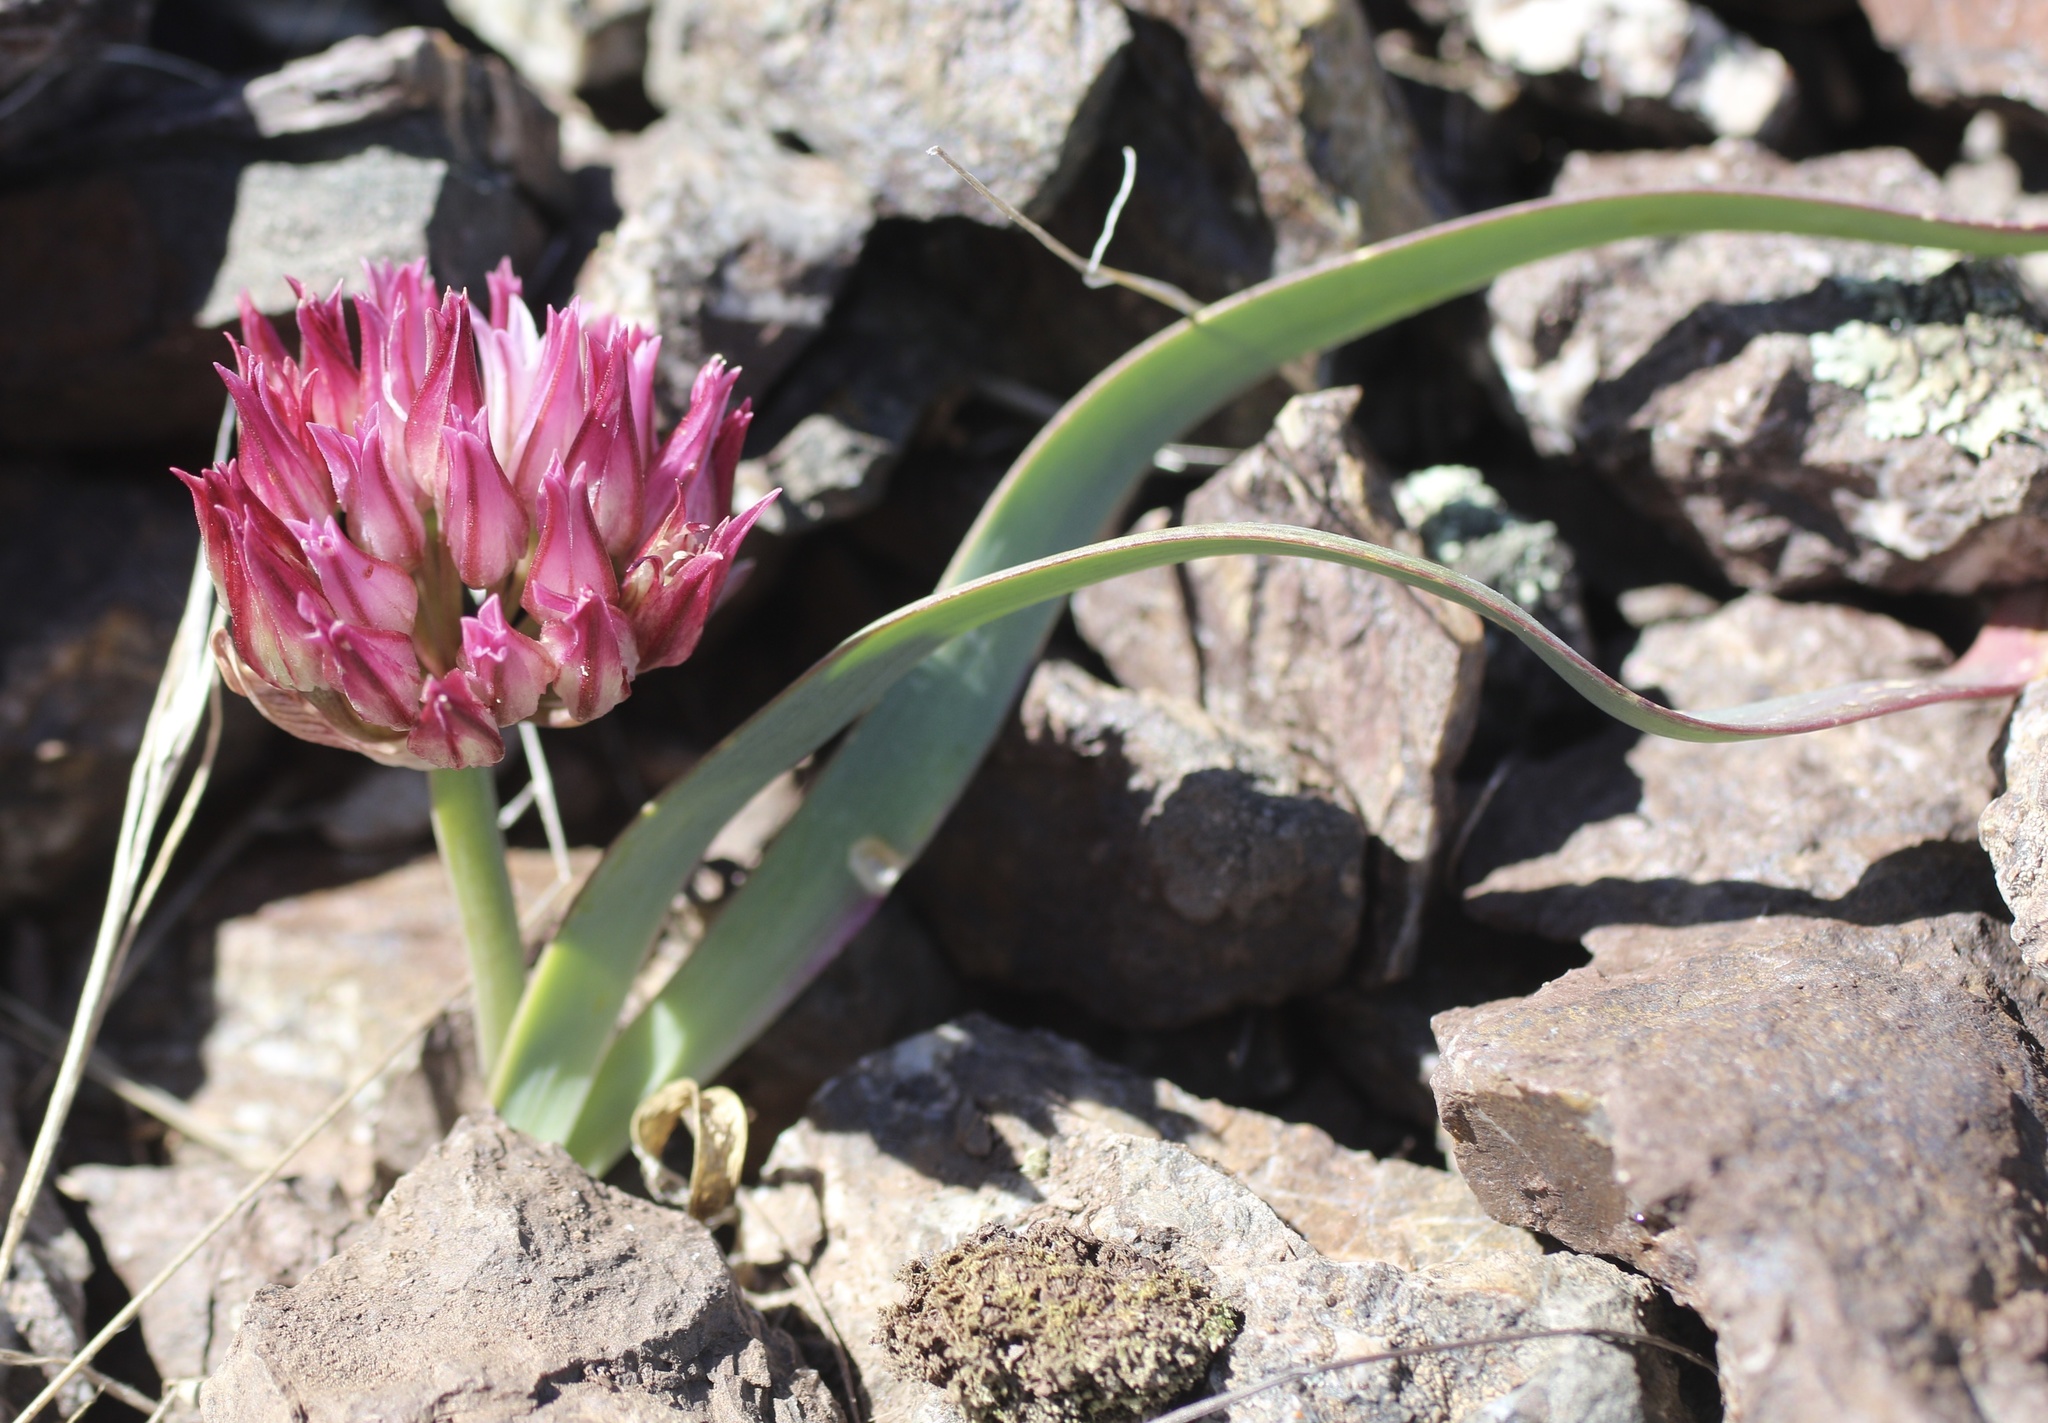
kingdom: Plantae
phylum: Tracheophyta
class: Liliopsida
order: Asparagales
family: Amaryllidaceae
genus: Allium
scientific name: Allium falcifolium
